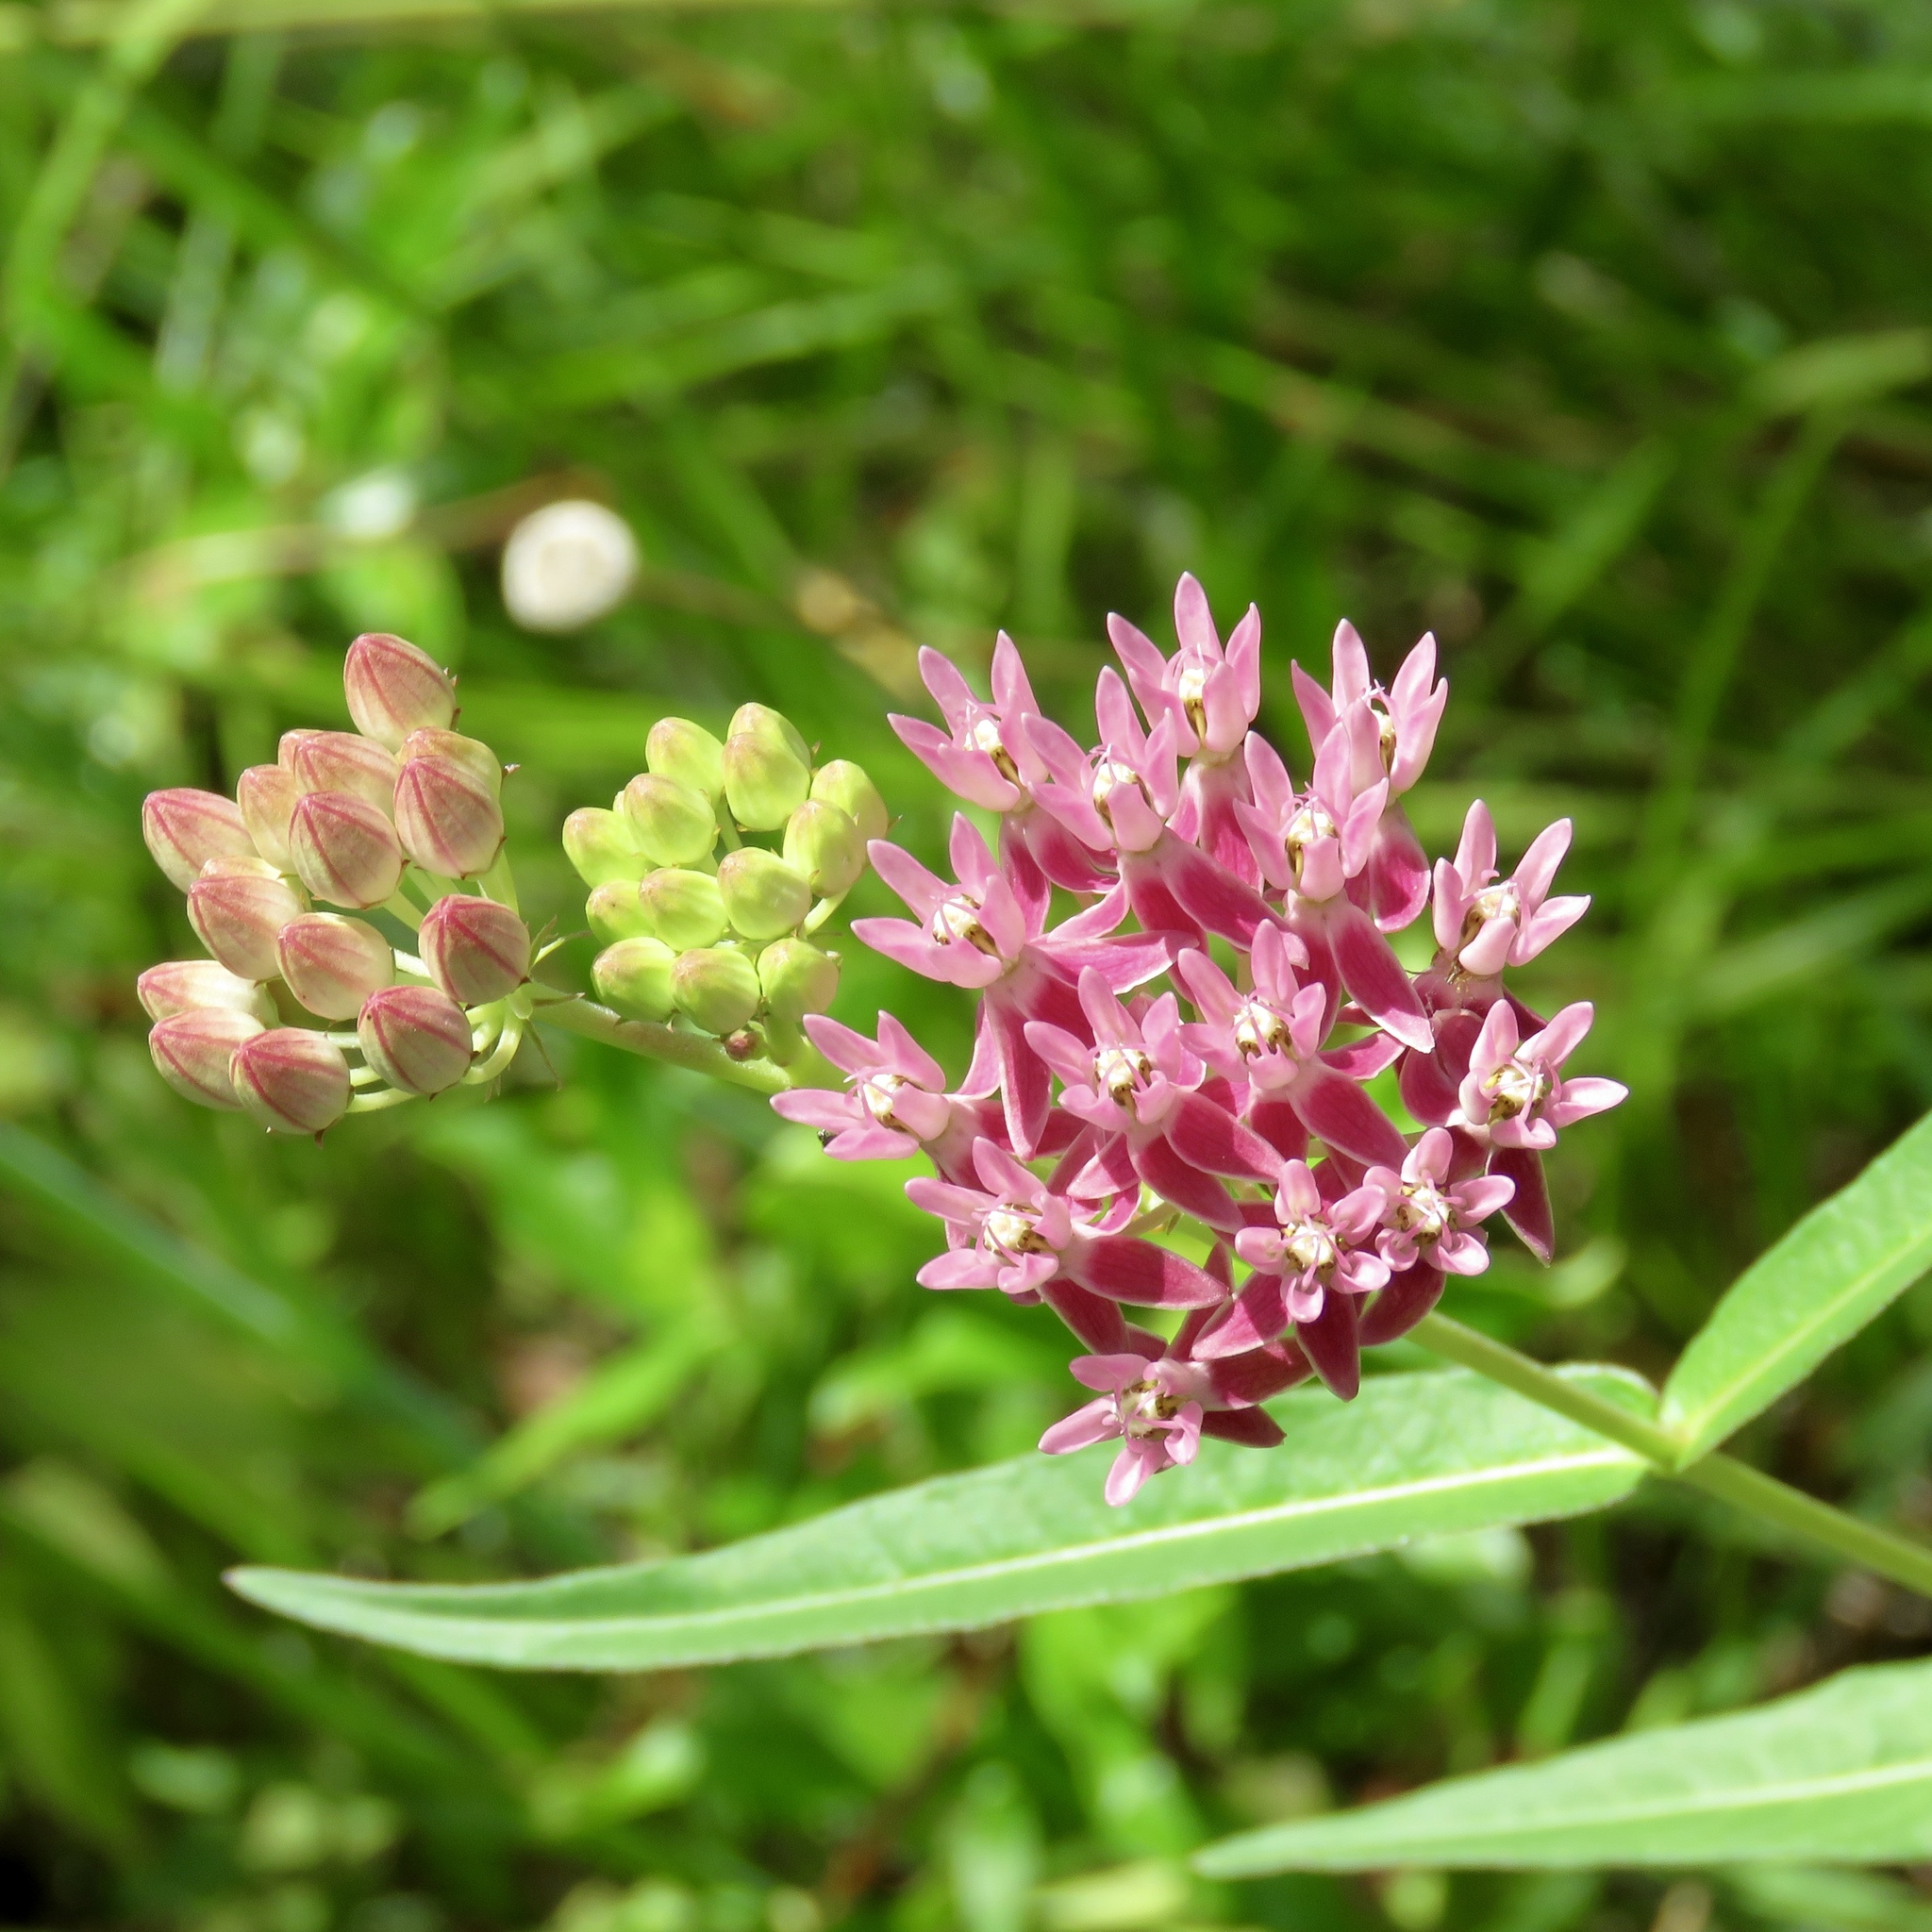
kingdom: Plantae
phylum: Tracheophyta
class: Magnoliopsida
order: Gentianales
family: Apocynaceae
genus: Asclepias
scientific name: Asclepias rubra
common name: Red milkweed
